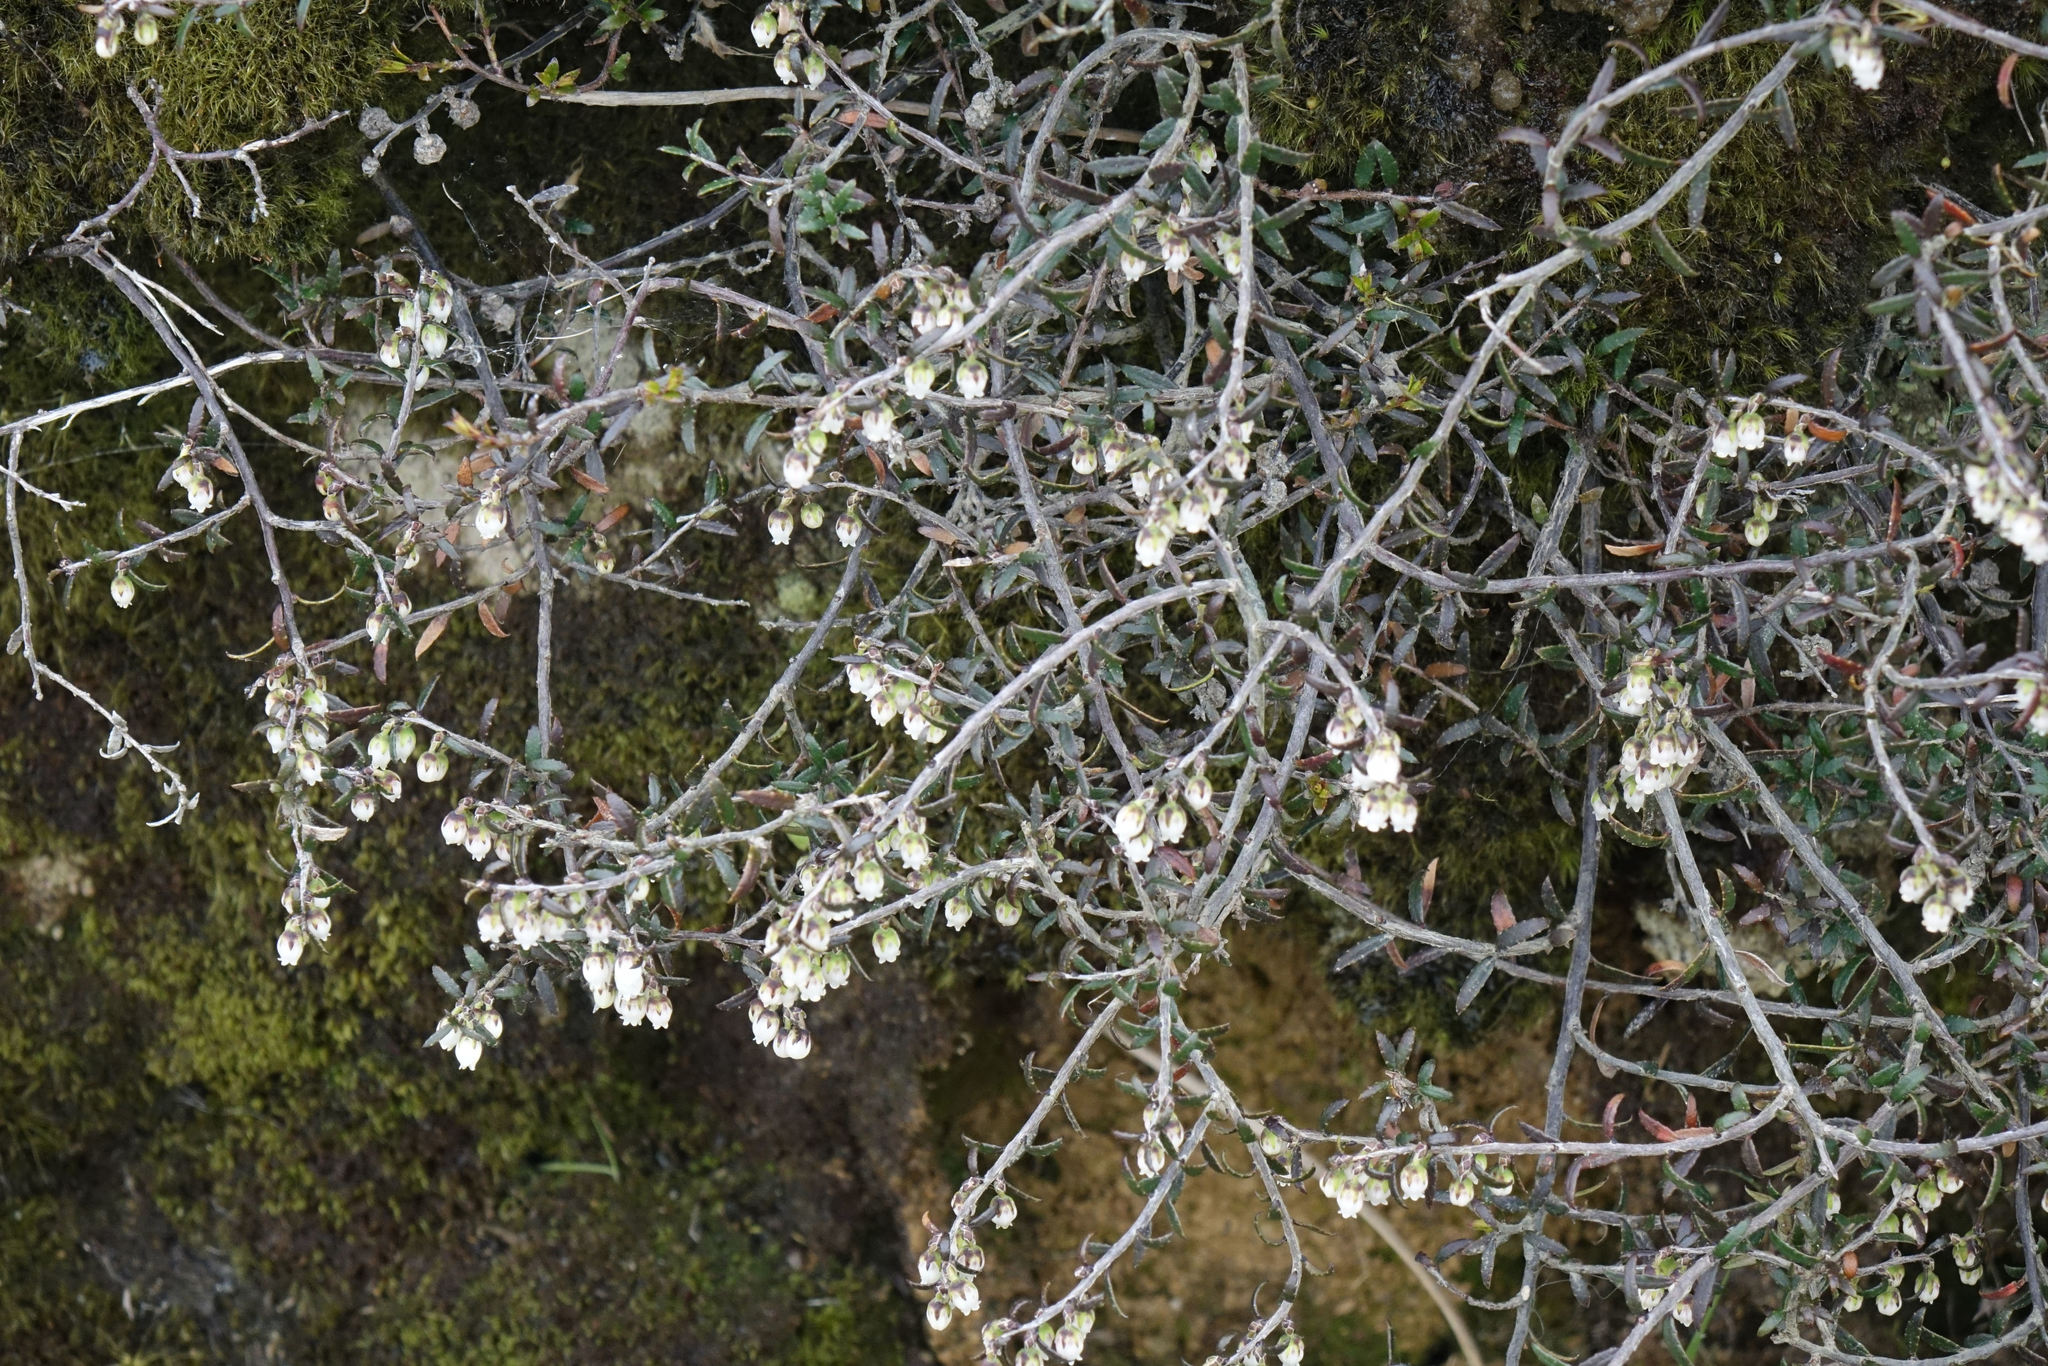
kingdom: Plantae
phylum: Tracheophyta
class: Magnoliopsida
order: Ericales
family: Ericaceae
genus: Gaultheria
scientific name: Gaultheria macrostigma
